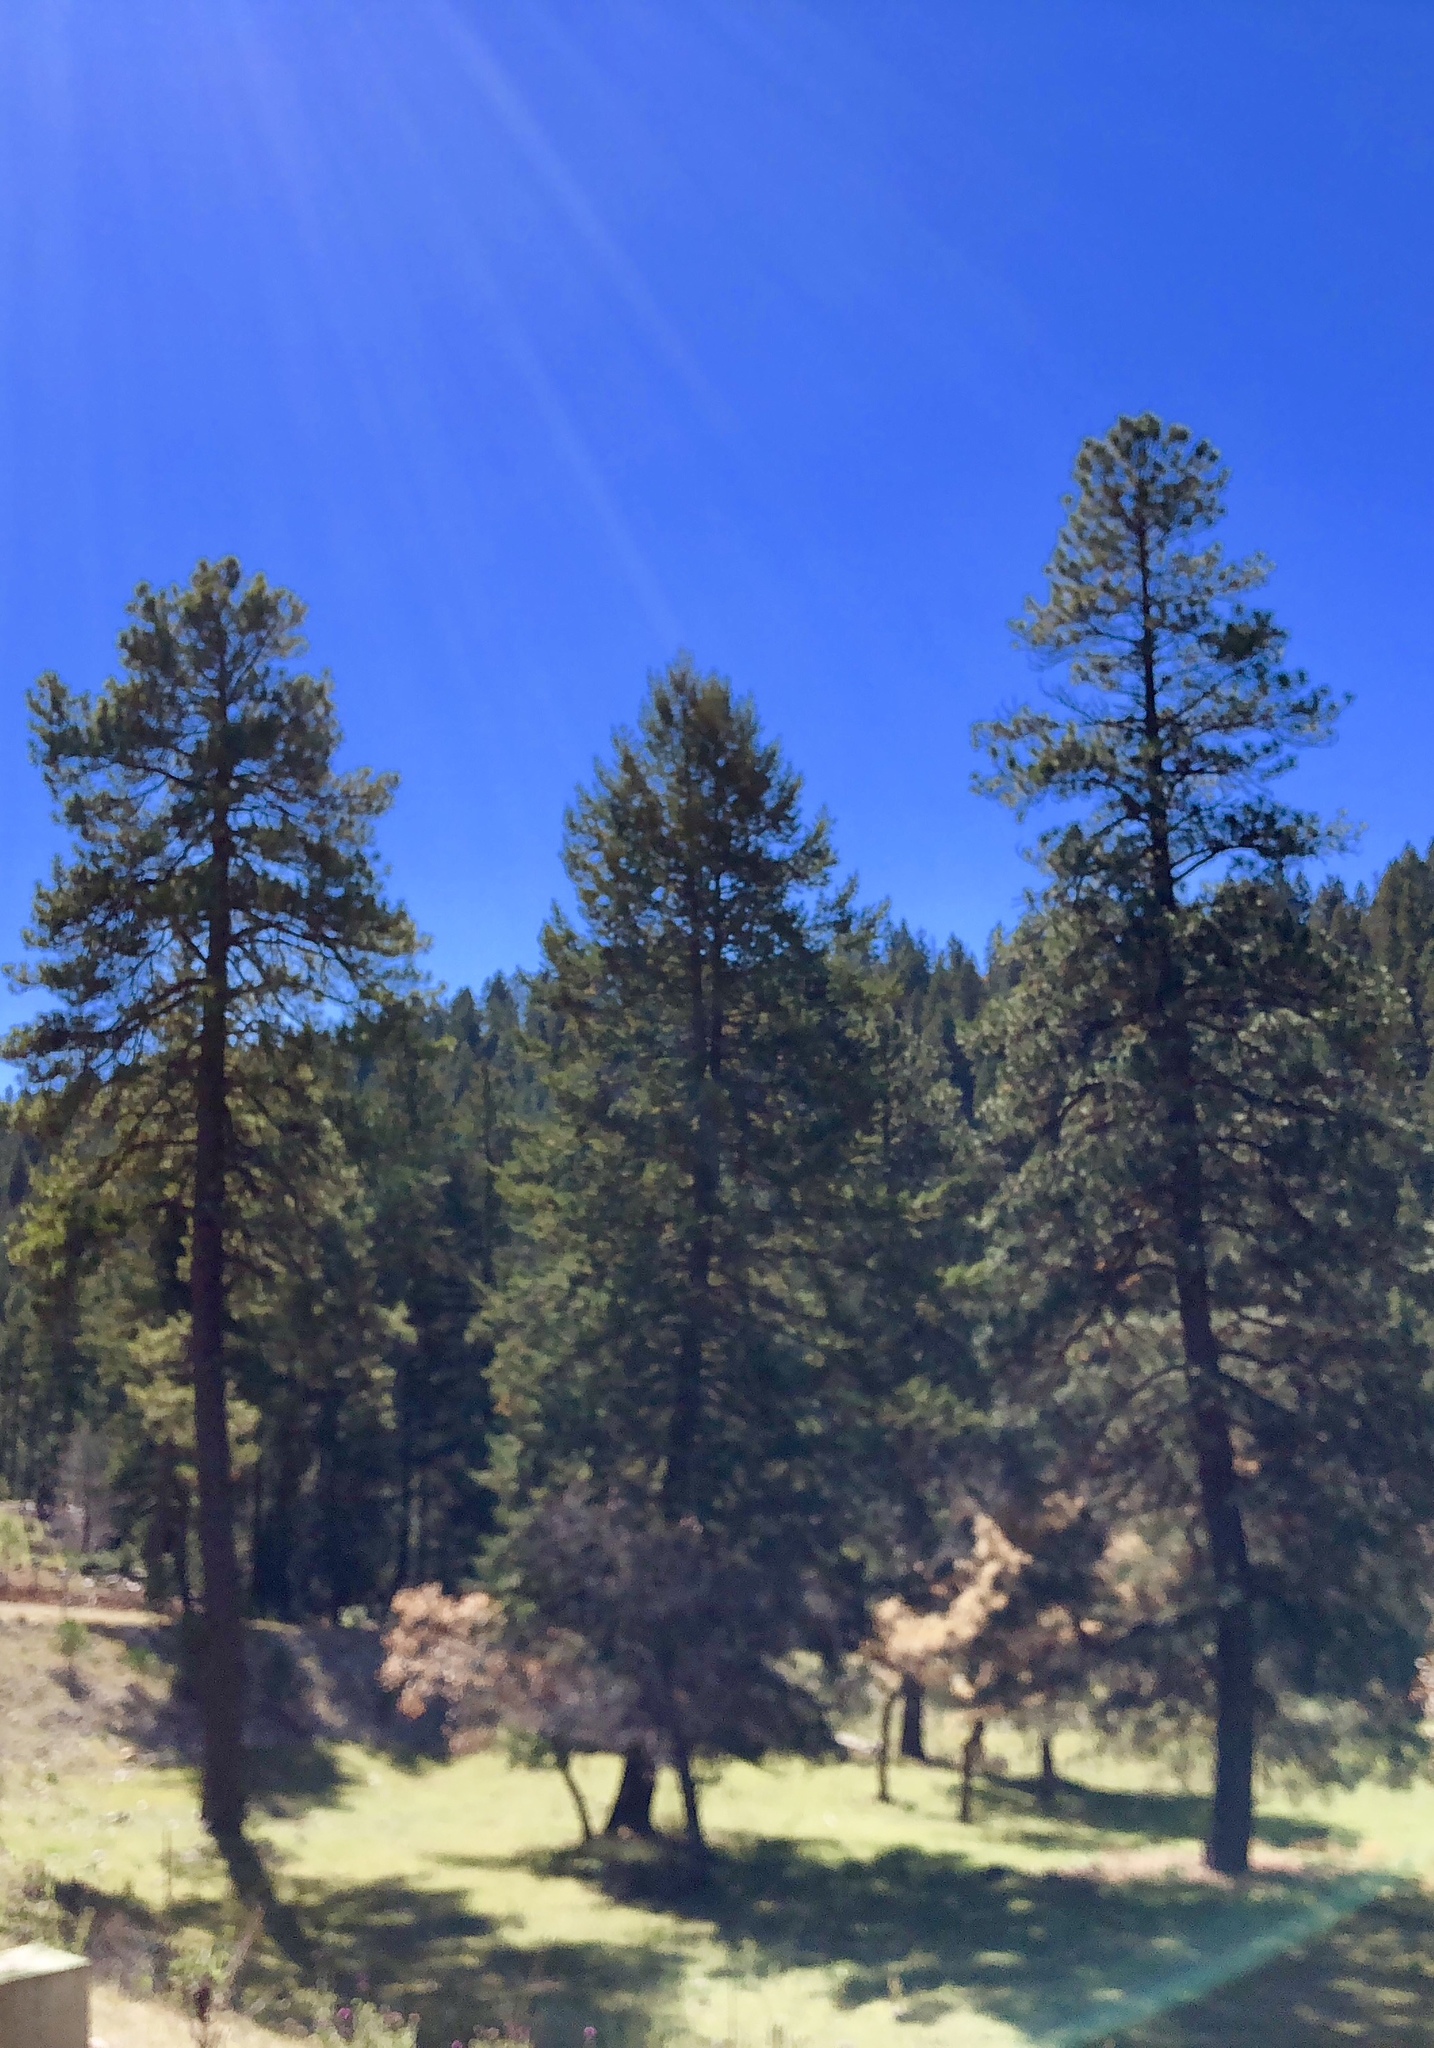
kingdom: Plantae
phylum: Tracheophyta
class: Pinopsida
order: Pinales
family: Pinaceae
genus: Pinus
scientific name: Pinus ponderosa
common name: Western yellow-pine
